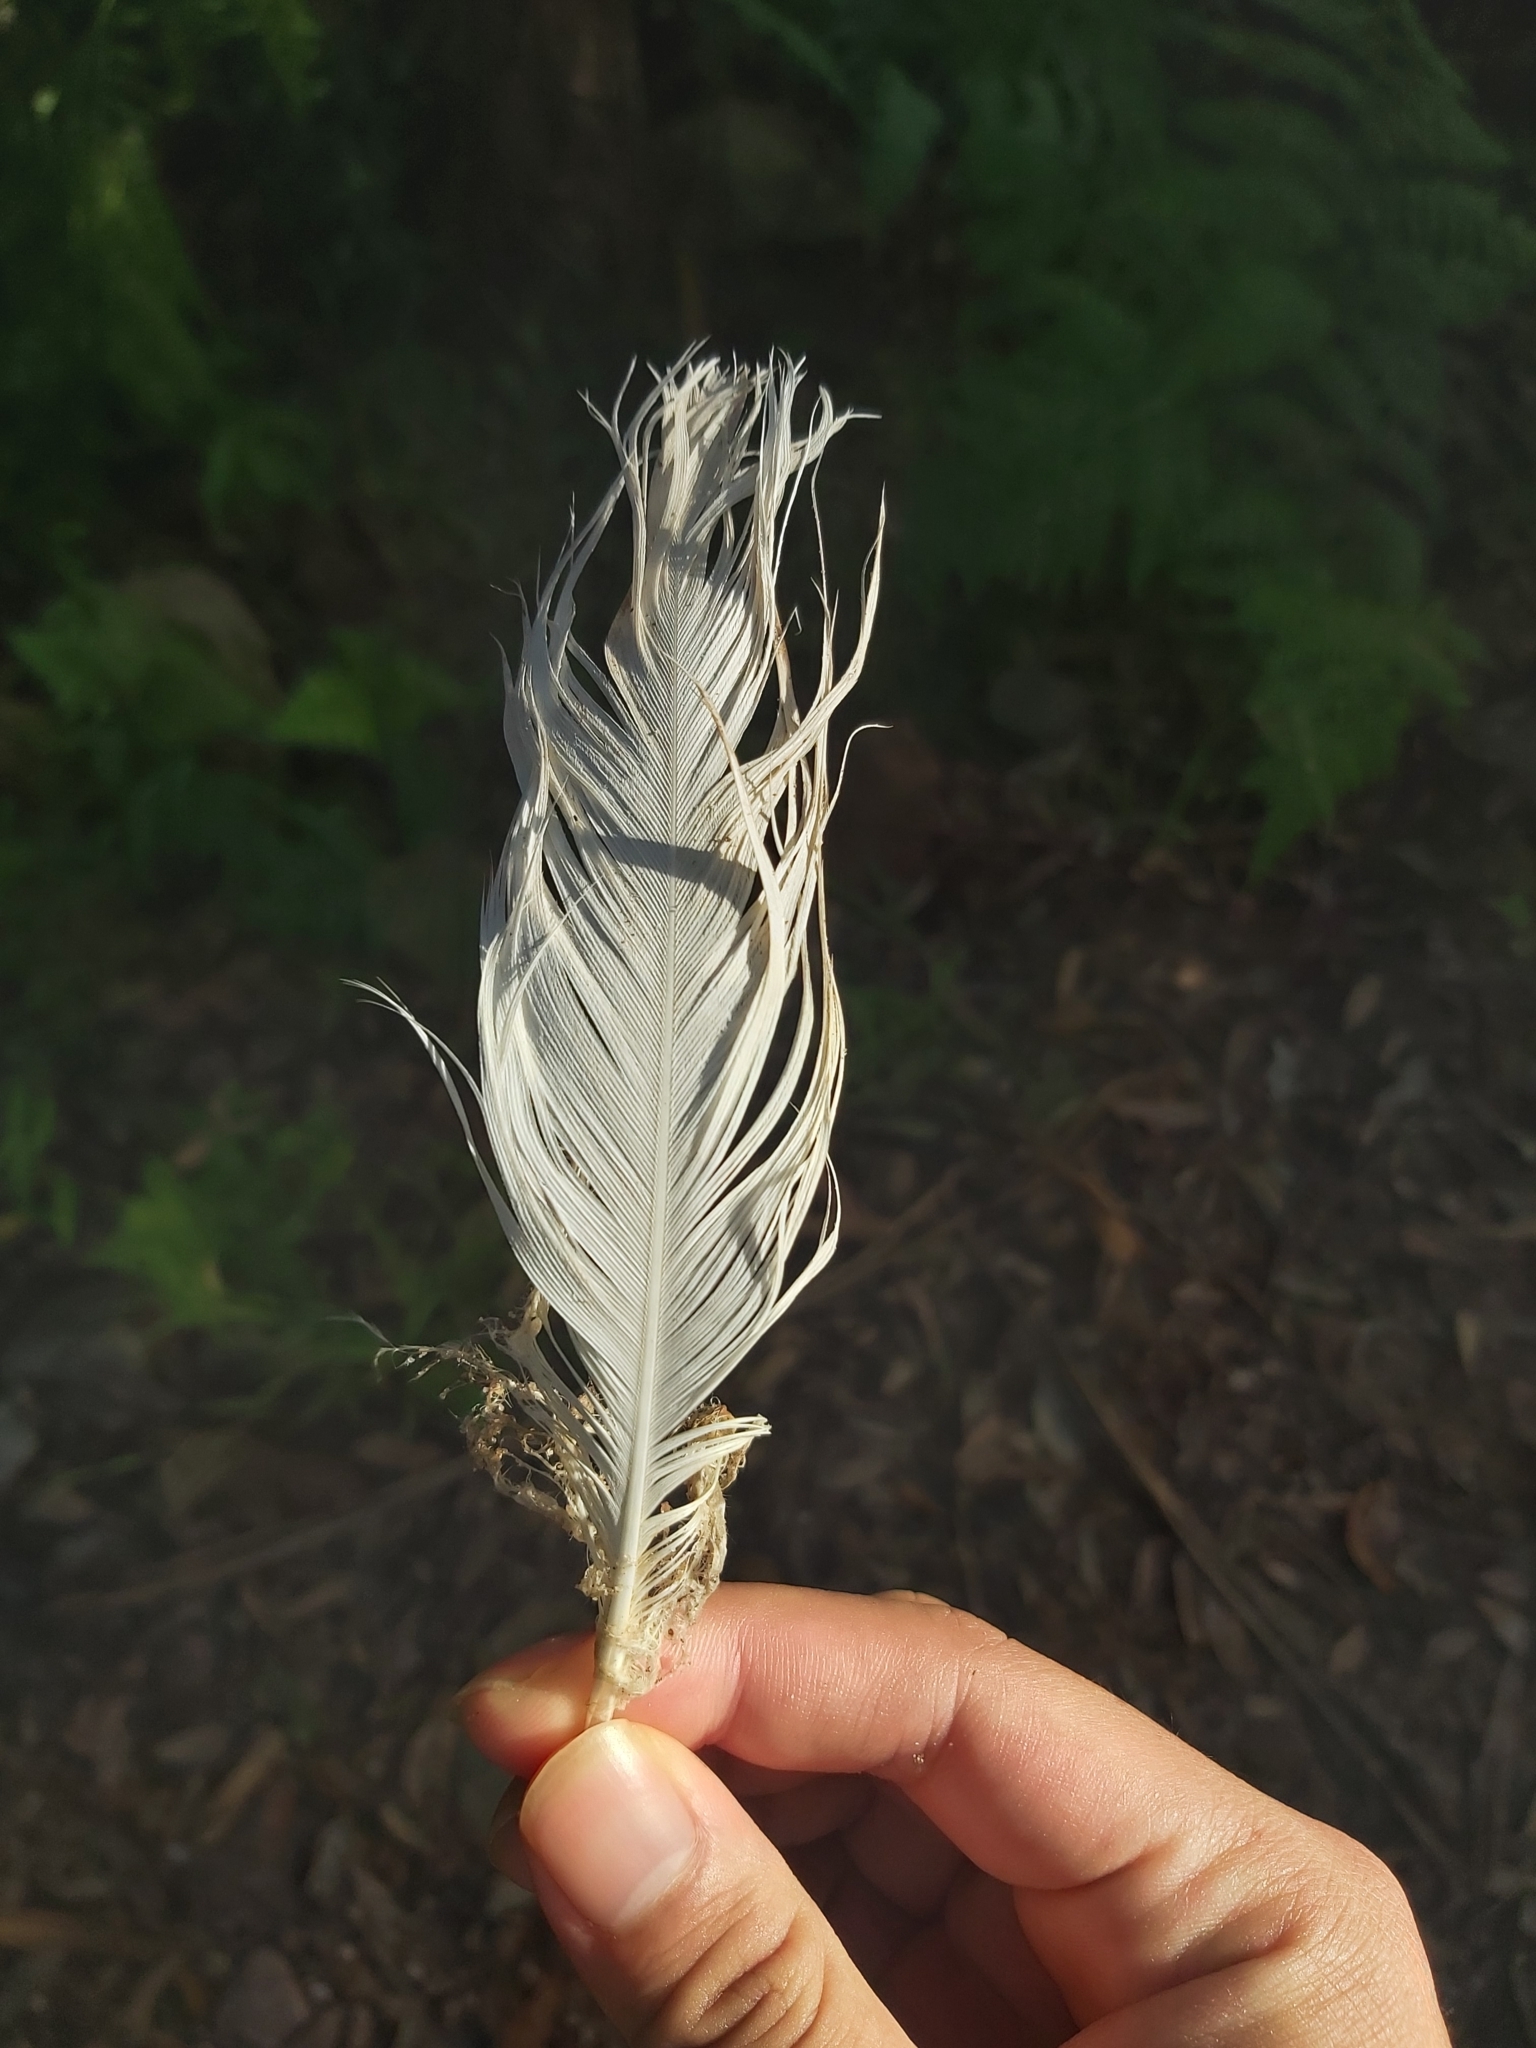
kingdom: Animalia
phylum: Chordata
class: Aves
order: Psittaciformes
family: Psittacidae
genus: Cacatua
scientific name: Cacatua galerita
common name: Sulphur-crested cockatoo
